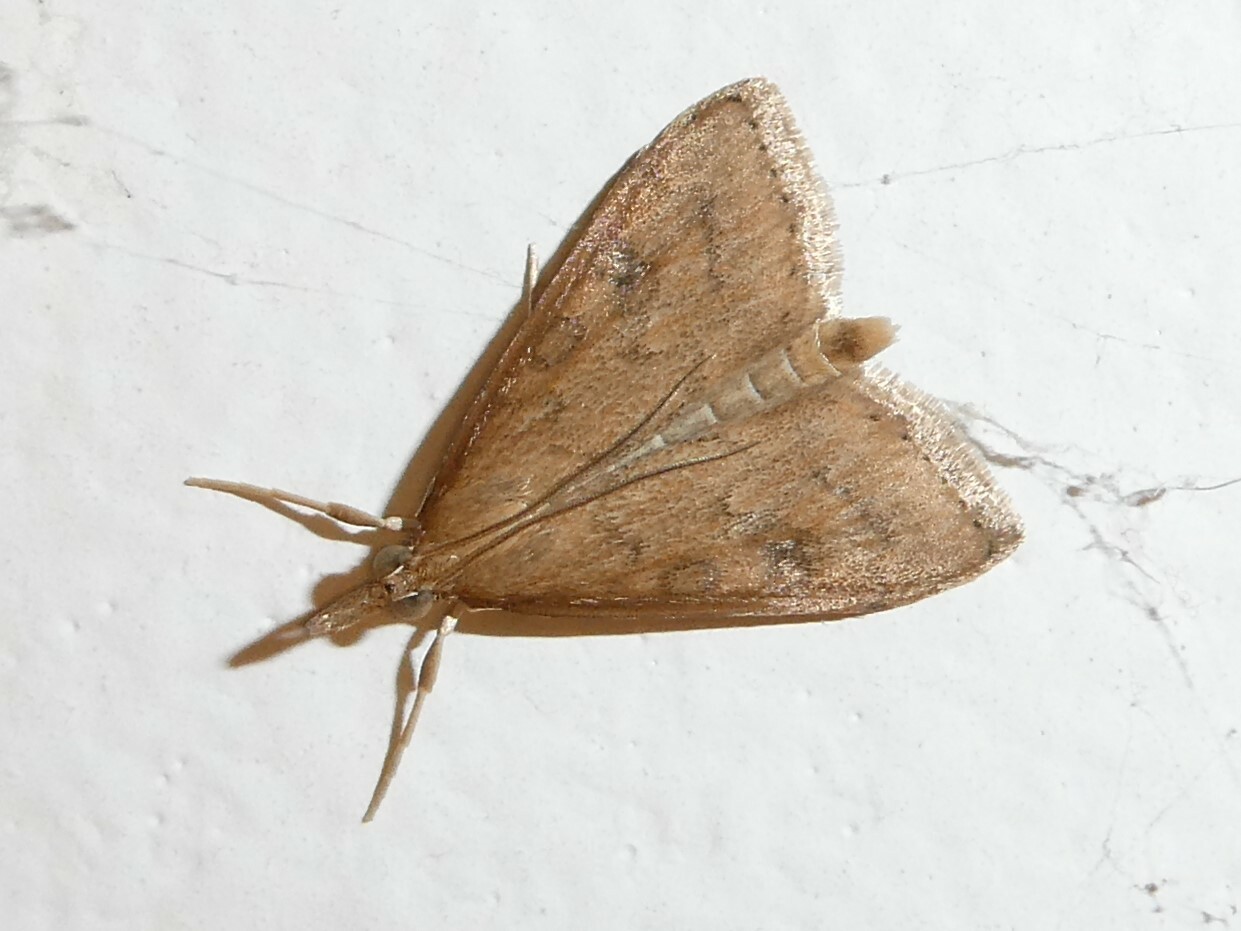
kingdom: Animalia
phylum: Arthropoda
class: Insecta
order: Lepidoptera
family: Crambidae
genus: Udea
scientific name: Udea rubigalis
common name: Celery leaftier moth
